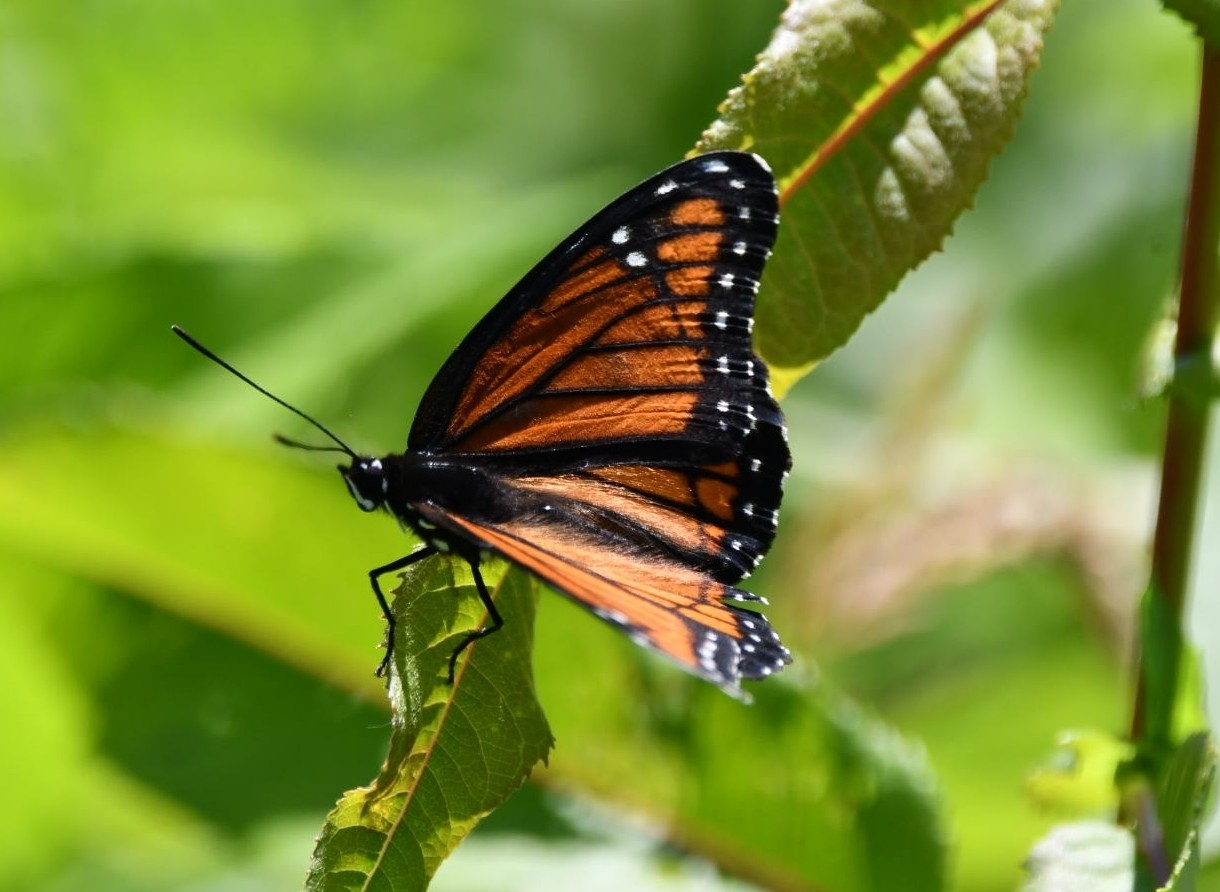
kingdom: Animalia
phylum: Arthropoda
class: Insecta
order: Lepidoptera
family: Nymphalidae
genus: Limenitis
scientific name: Limenitis archippus
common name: Viceroy
